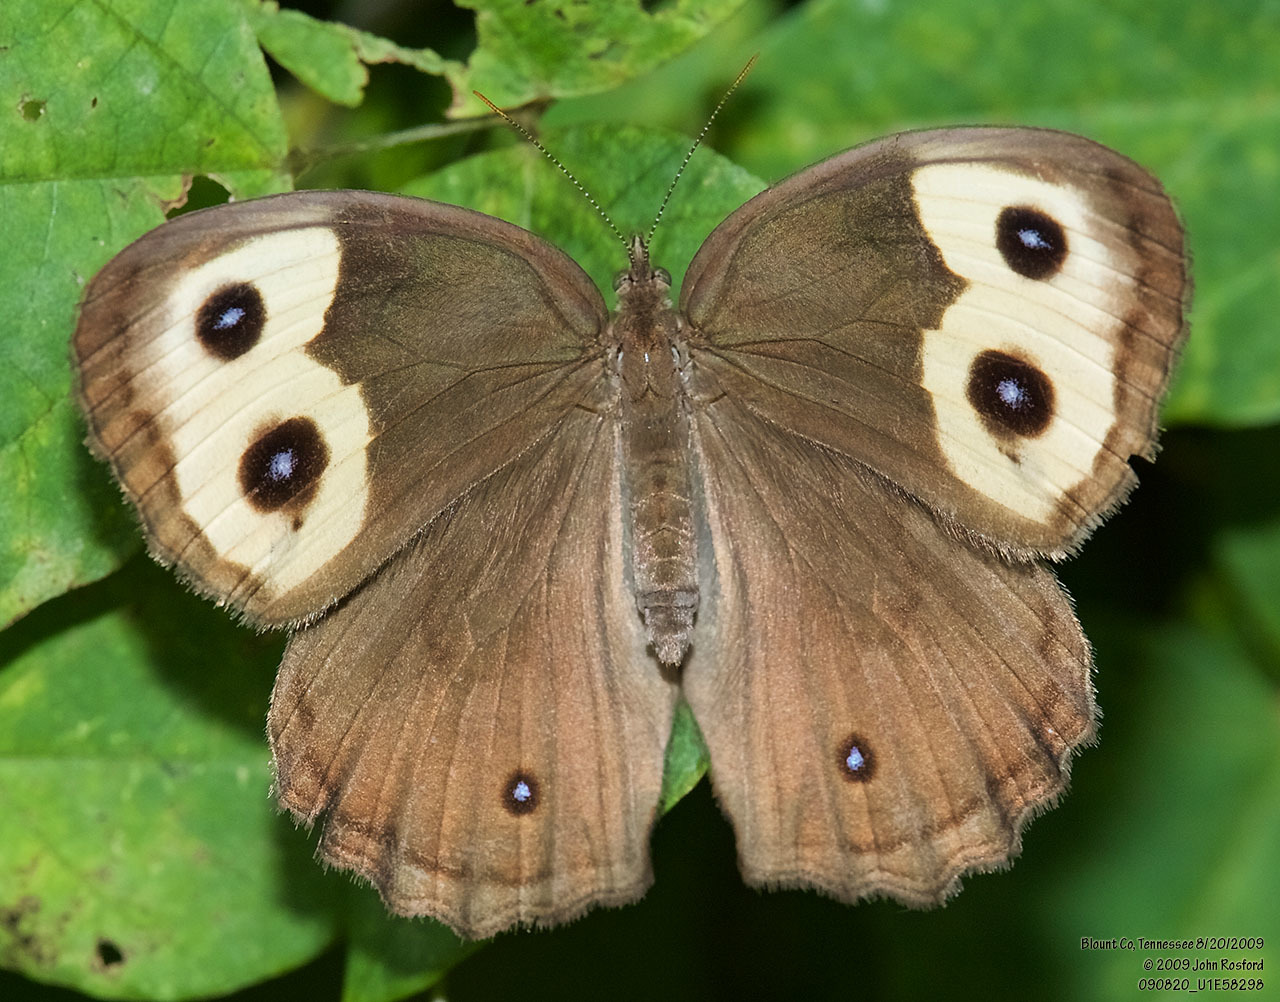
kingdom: Animalia
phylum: Arthropoda
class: Insecta
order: Lepidoptera
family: Nymphalidae
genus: Cercyonis
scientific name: Cercyonis pegala
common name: Common wood-nymph
